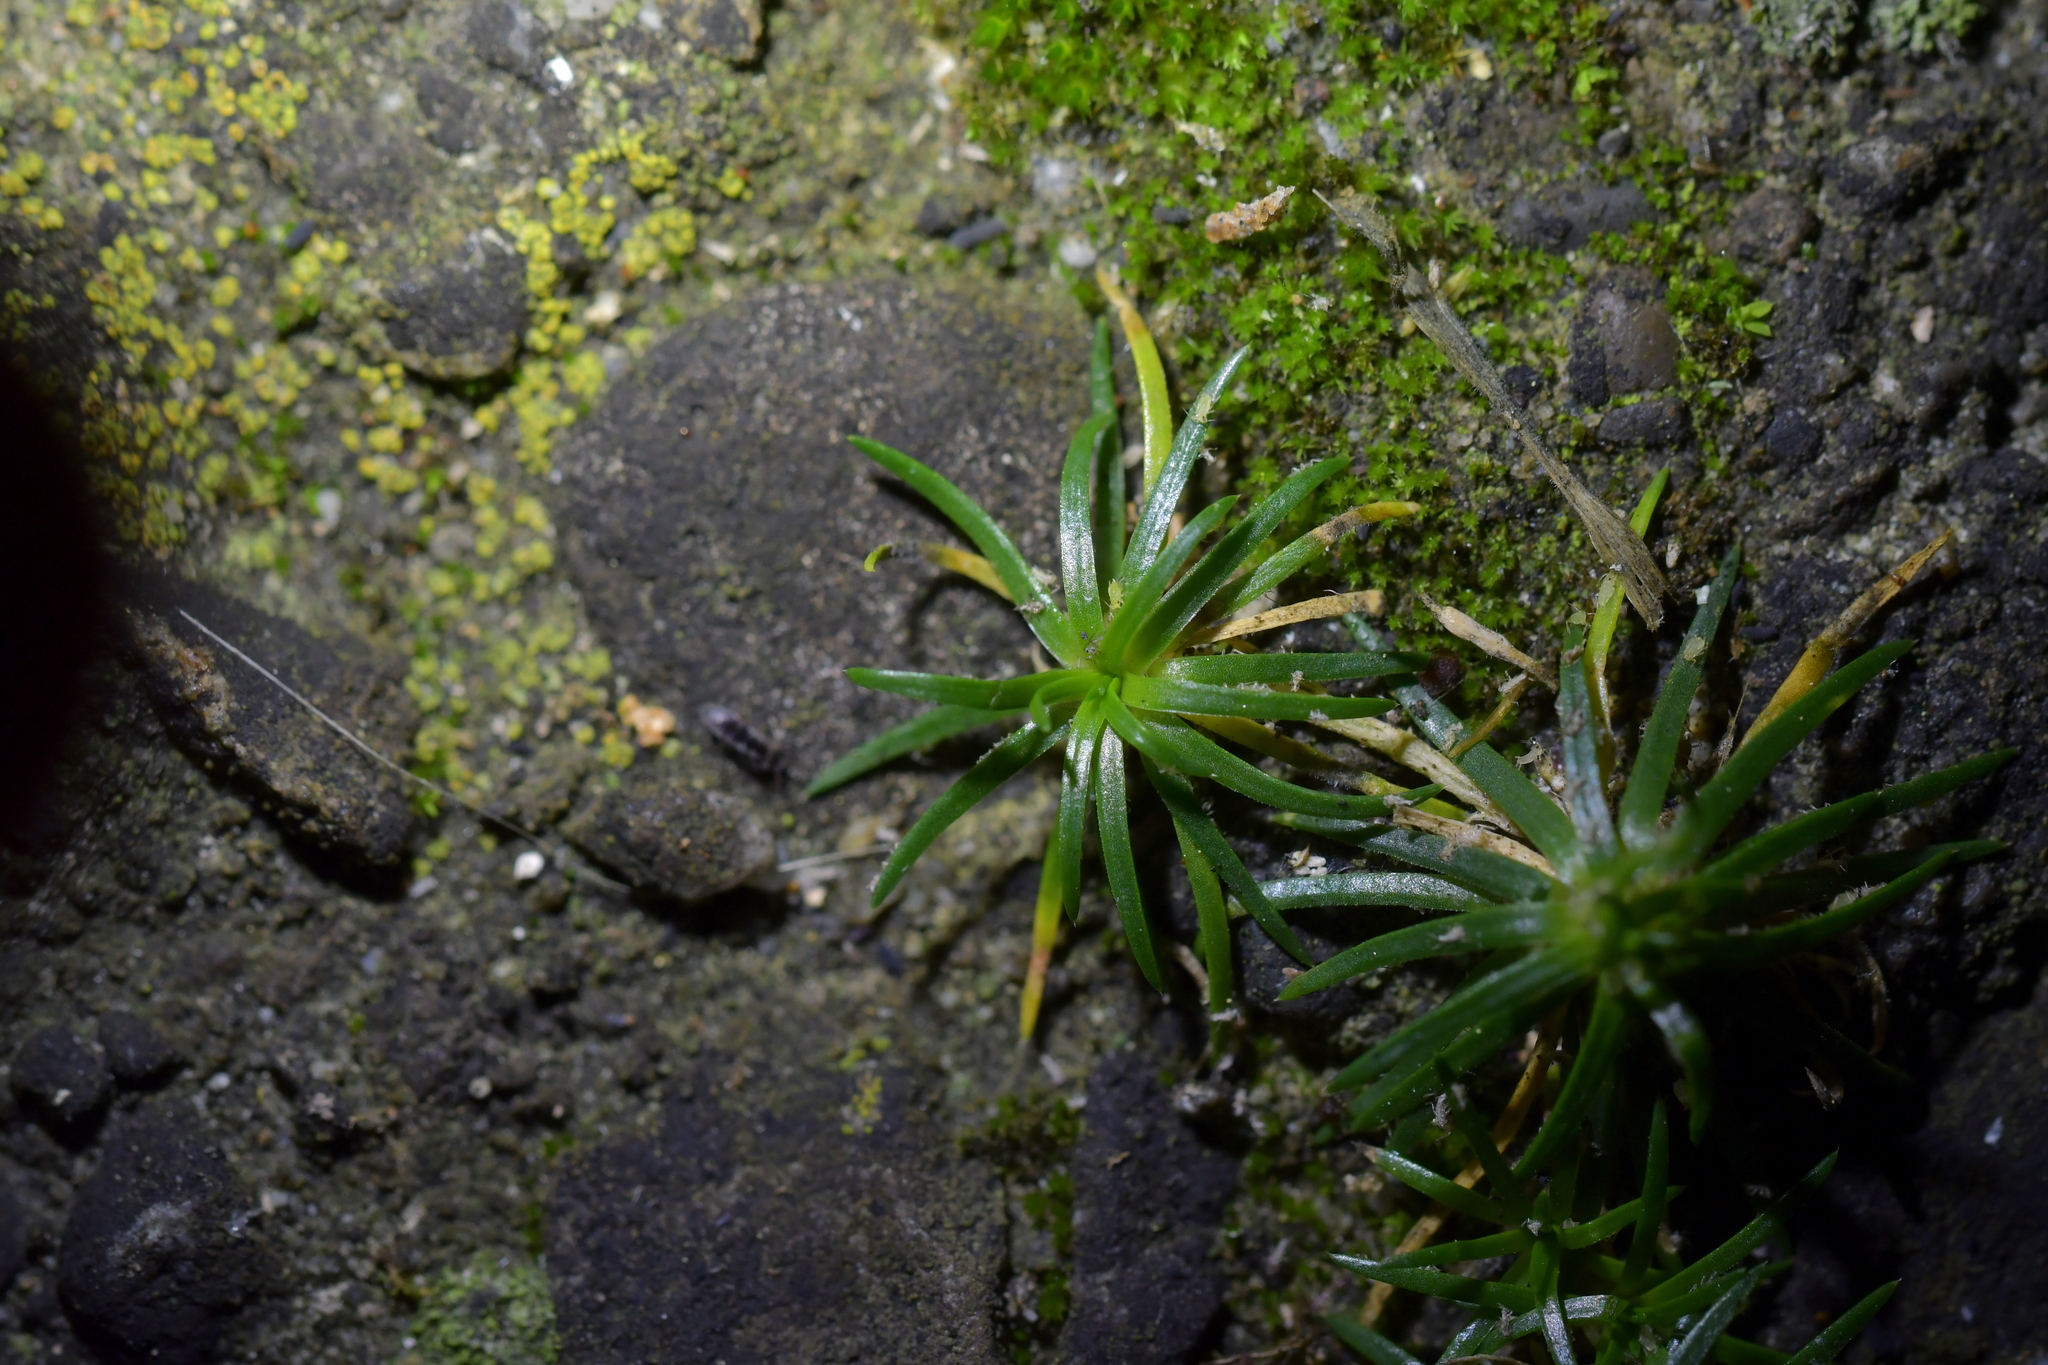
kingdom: Plantae
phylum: Tracheophyta
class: Magnoliopsida
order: Caryophyllales
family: Caryophyllaceae
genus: Sagina
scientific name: Sagina procumbens
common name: Procumbent pearlwort
